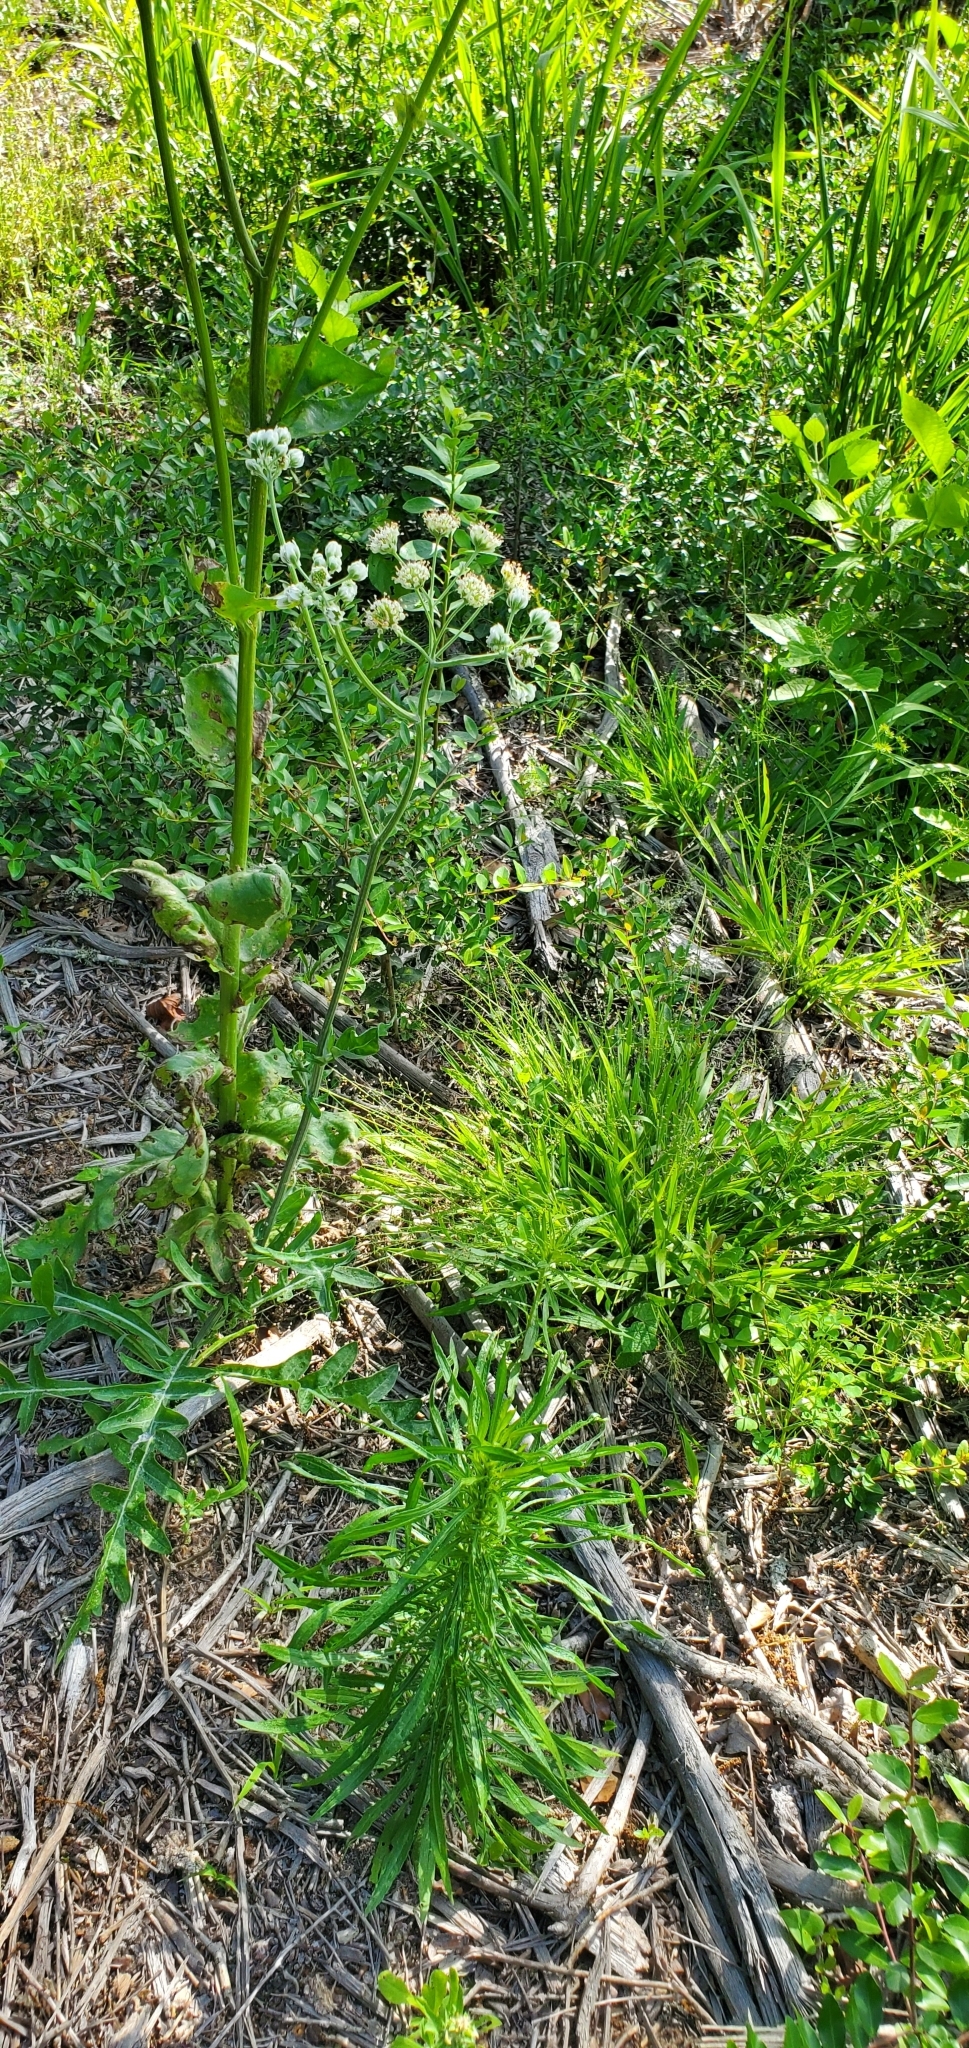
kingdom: Plantae
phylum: Tracheophyta
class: Magnoliopsida
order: Asterales
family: Asteraceae
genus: Hymenopappus
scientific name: Hymenopappus artemisiifolius
